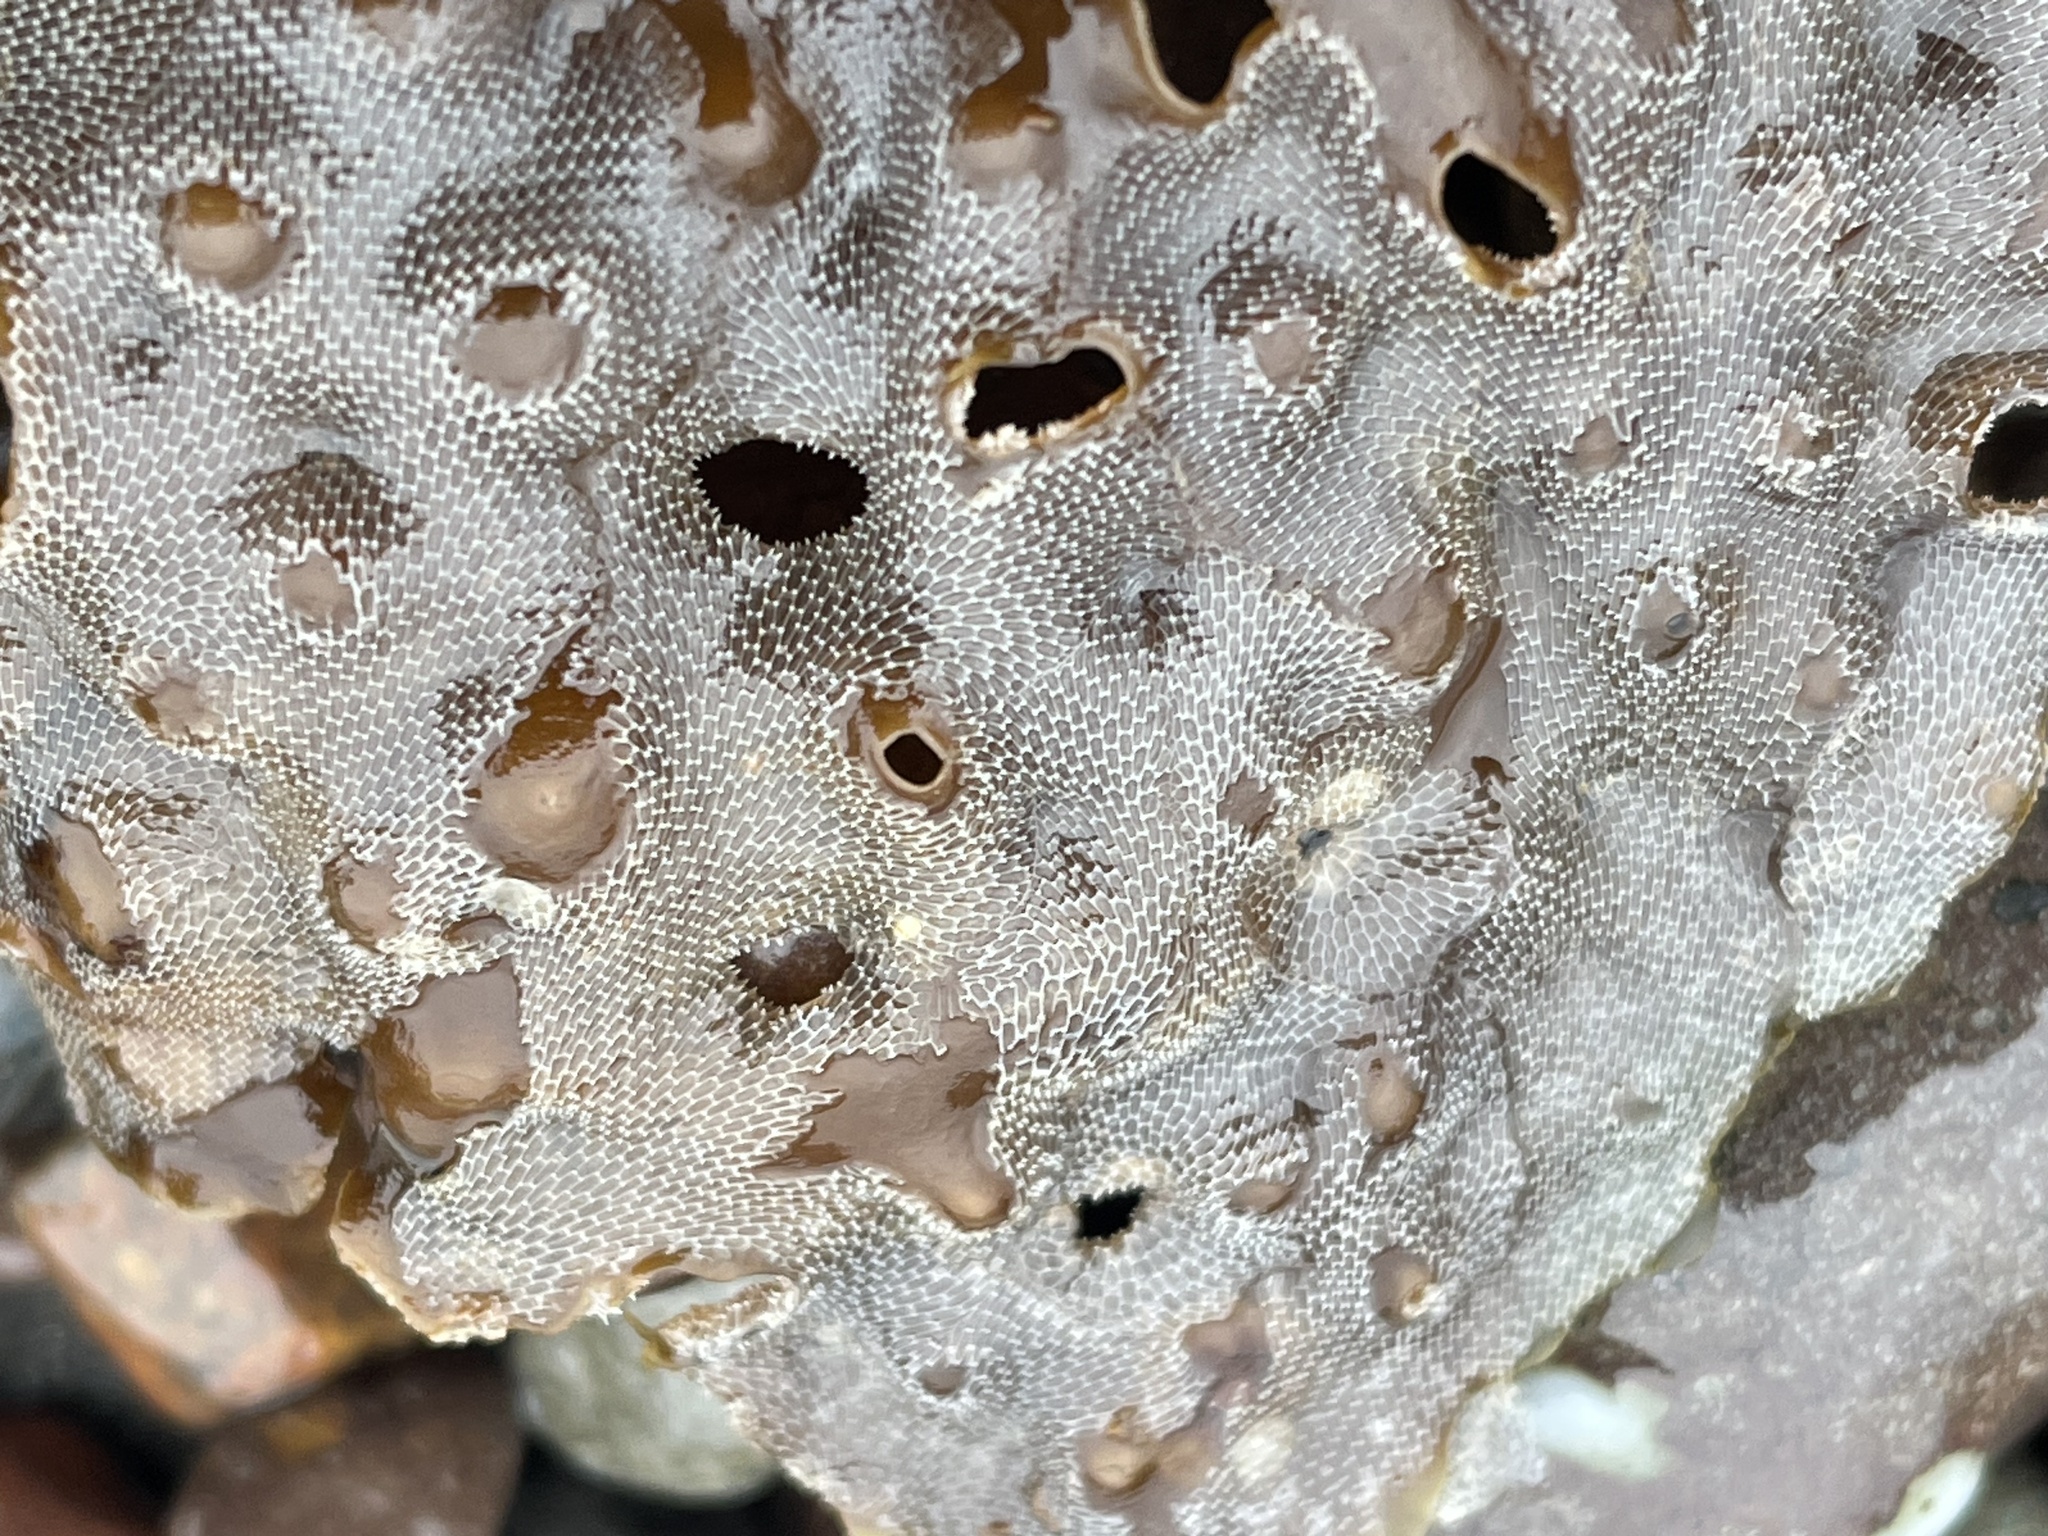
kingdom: Animalia
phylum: Bryozoa
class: Gymnolaemata
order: Cheilostomatida
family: Membraniporidae
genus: Membranipora
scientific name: Membranipora membranacea
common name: Sea mat
